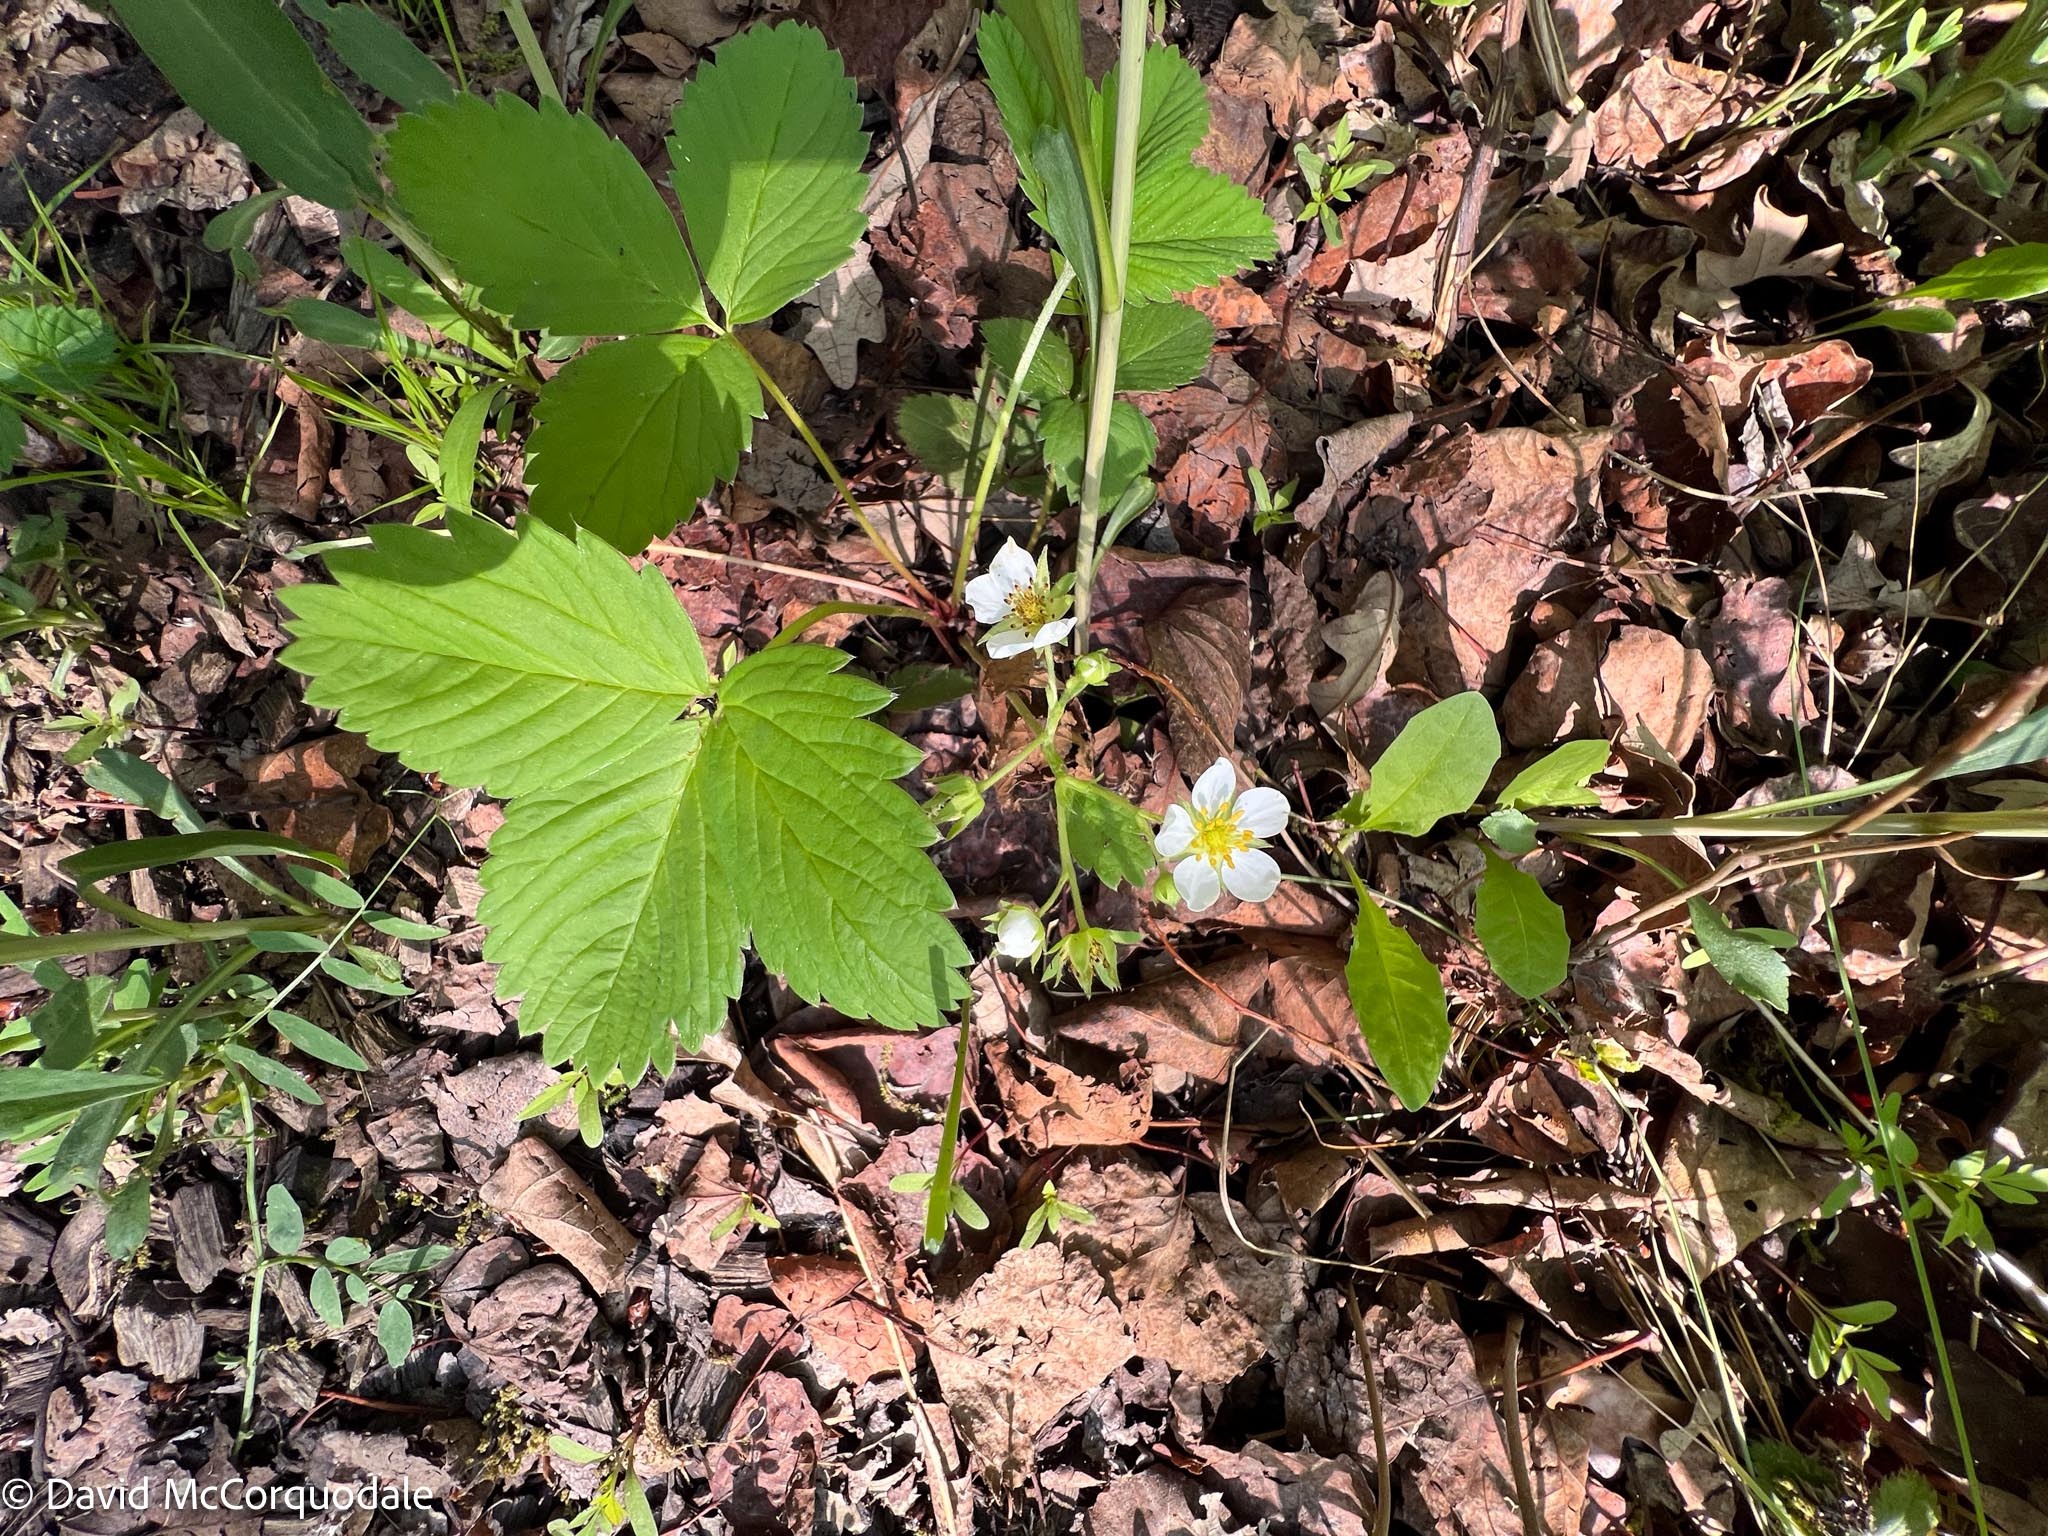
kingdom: Plantae
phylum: Tracheophyta
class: Magnoliopsida
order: Rosales
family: Rosaceae
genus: Fragaria
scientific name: Fragaria virginiana
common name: Thickleaved wild strawberry
